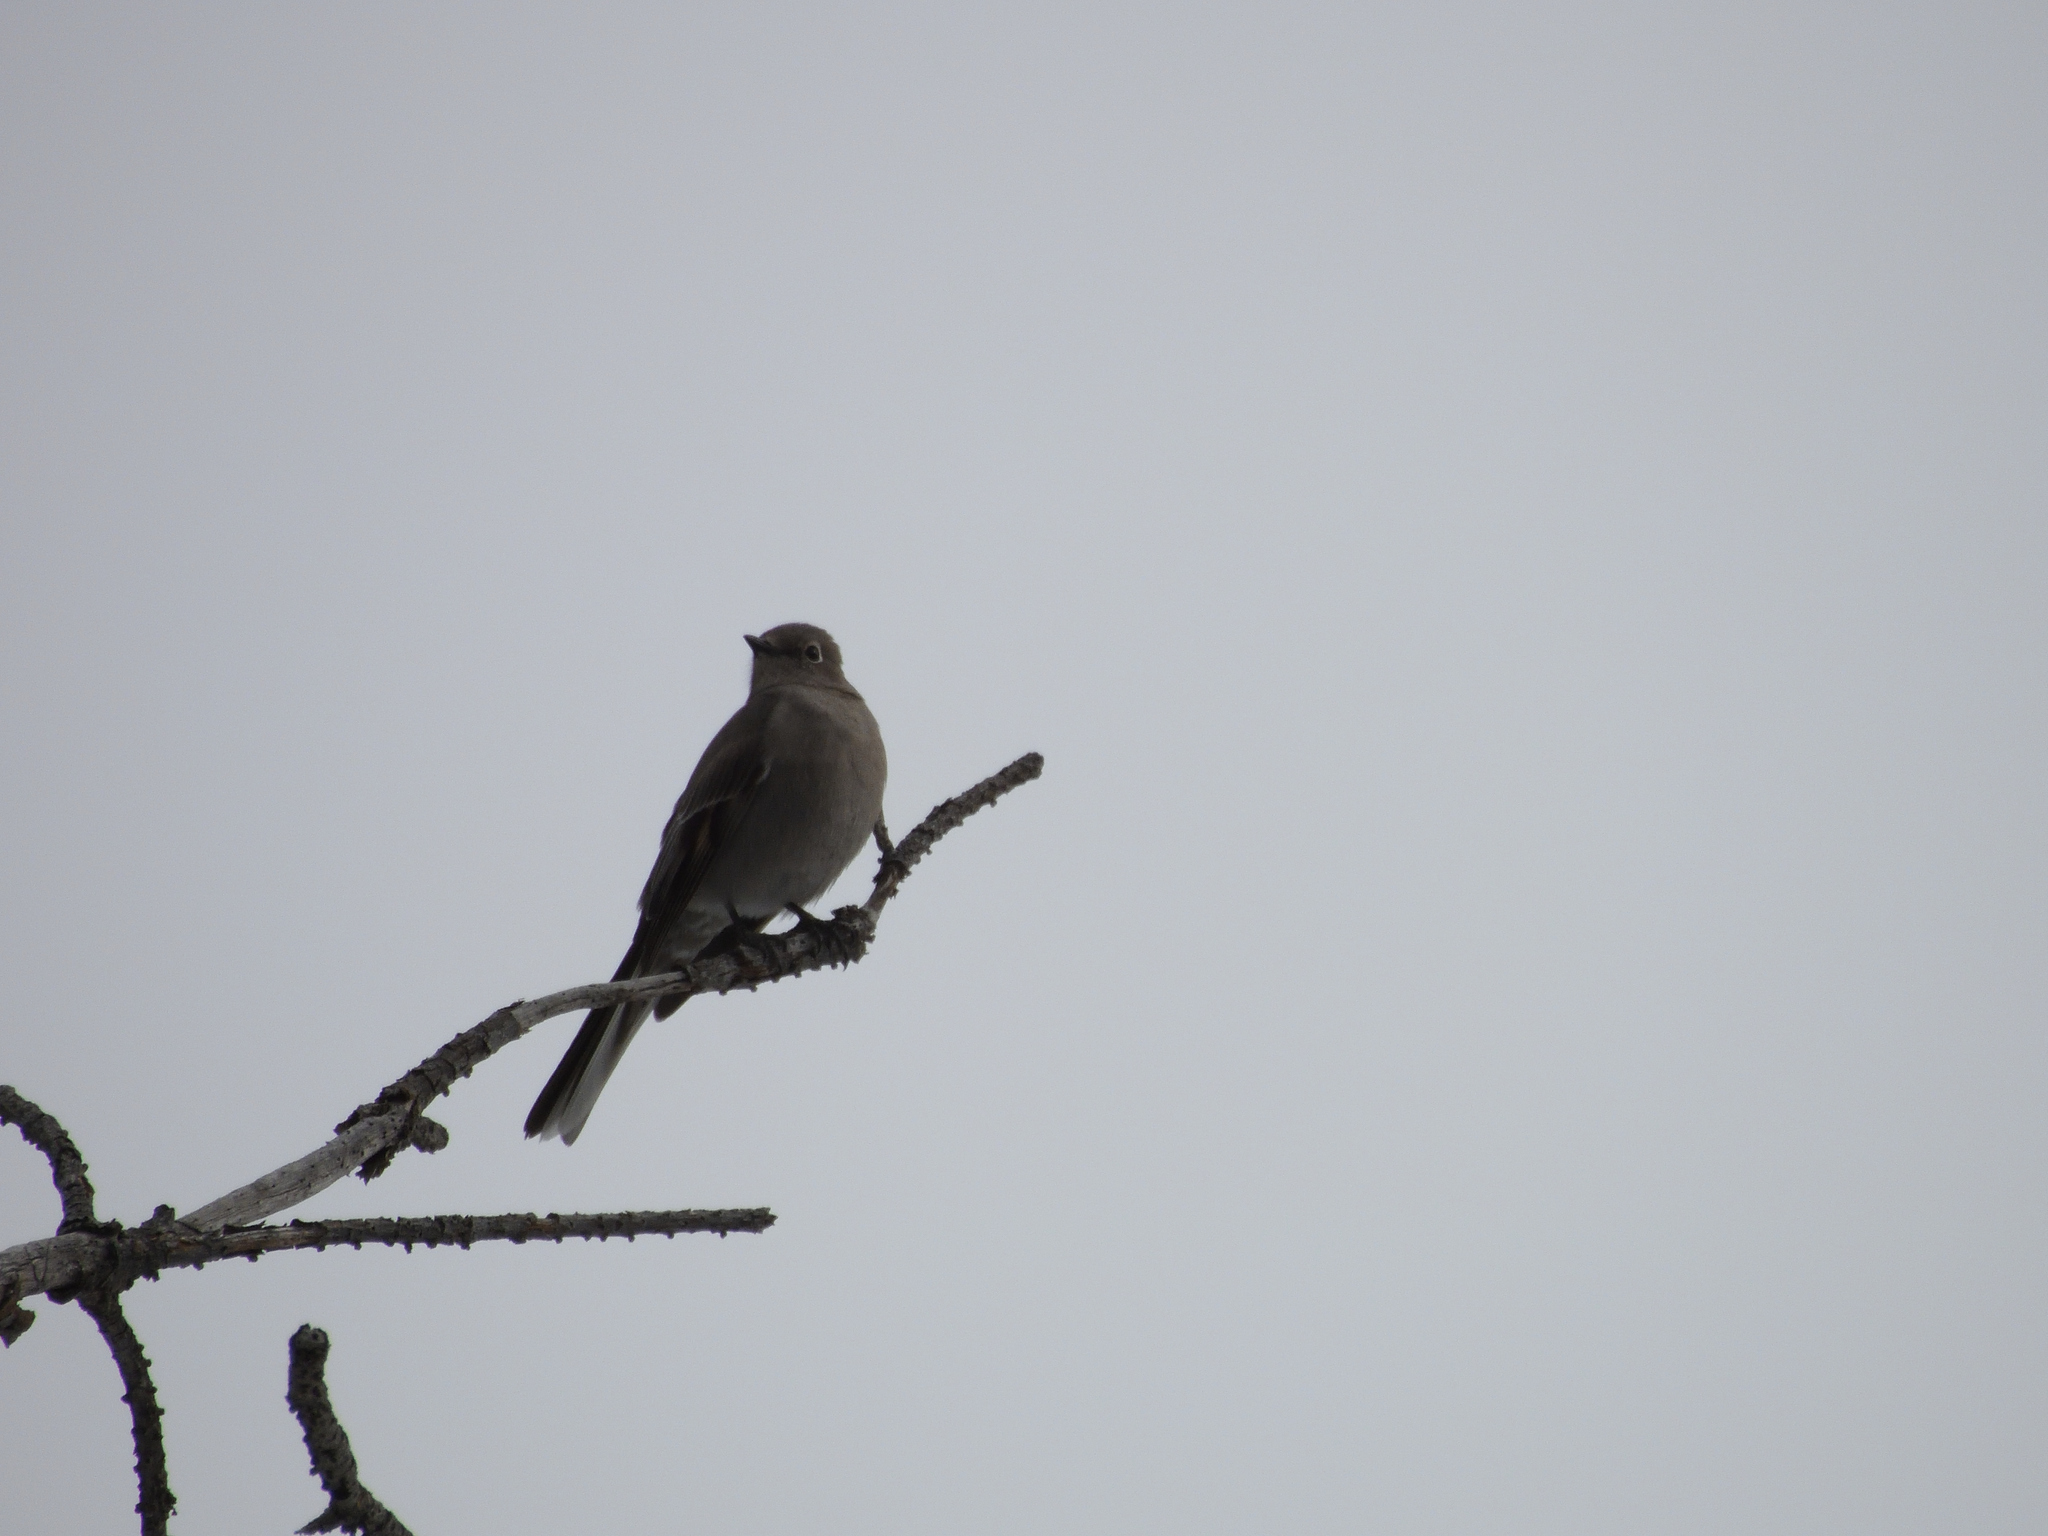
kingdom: Animalia
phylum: Chordata
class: Aves
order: Passeriformes
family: Turdidae
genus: Myadestes
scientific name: Myadestes townsendi
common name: Townsend's solitaire
